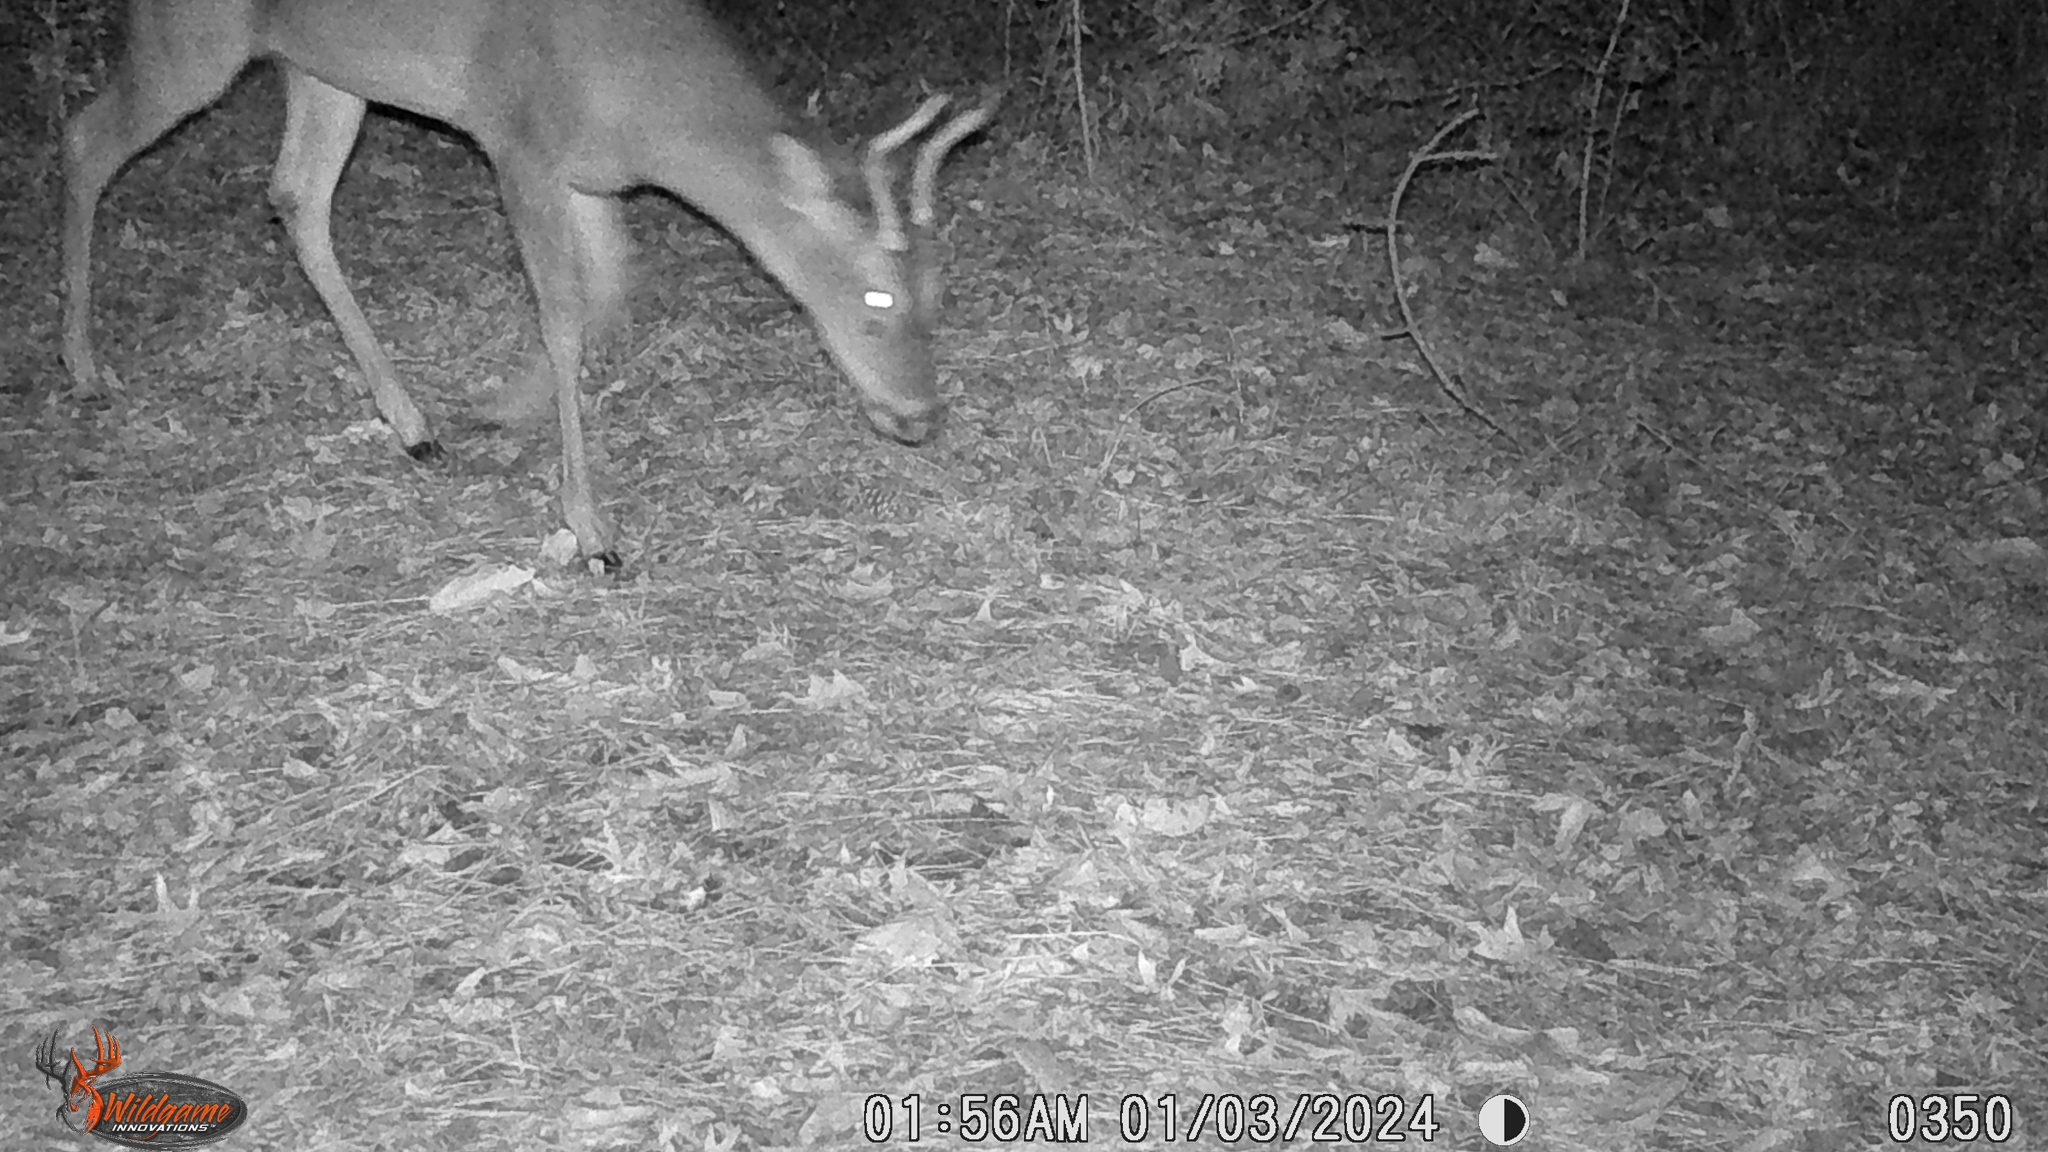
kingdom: Animalia
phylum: Chordata
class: Mammalia
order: Artiodactyla
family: Cervidae
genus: Odocoileus
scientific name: Odocoileus virginianus
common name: White-tailed deer
